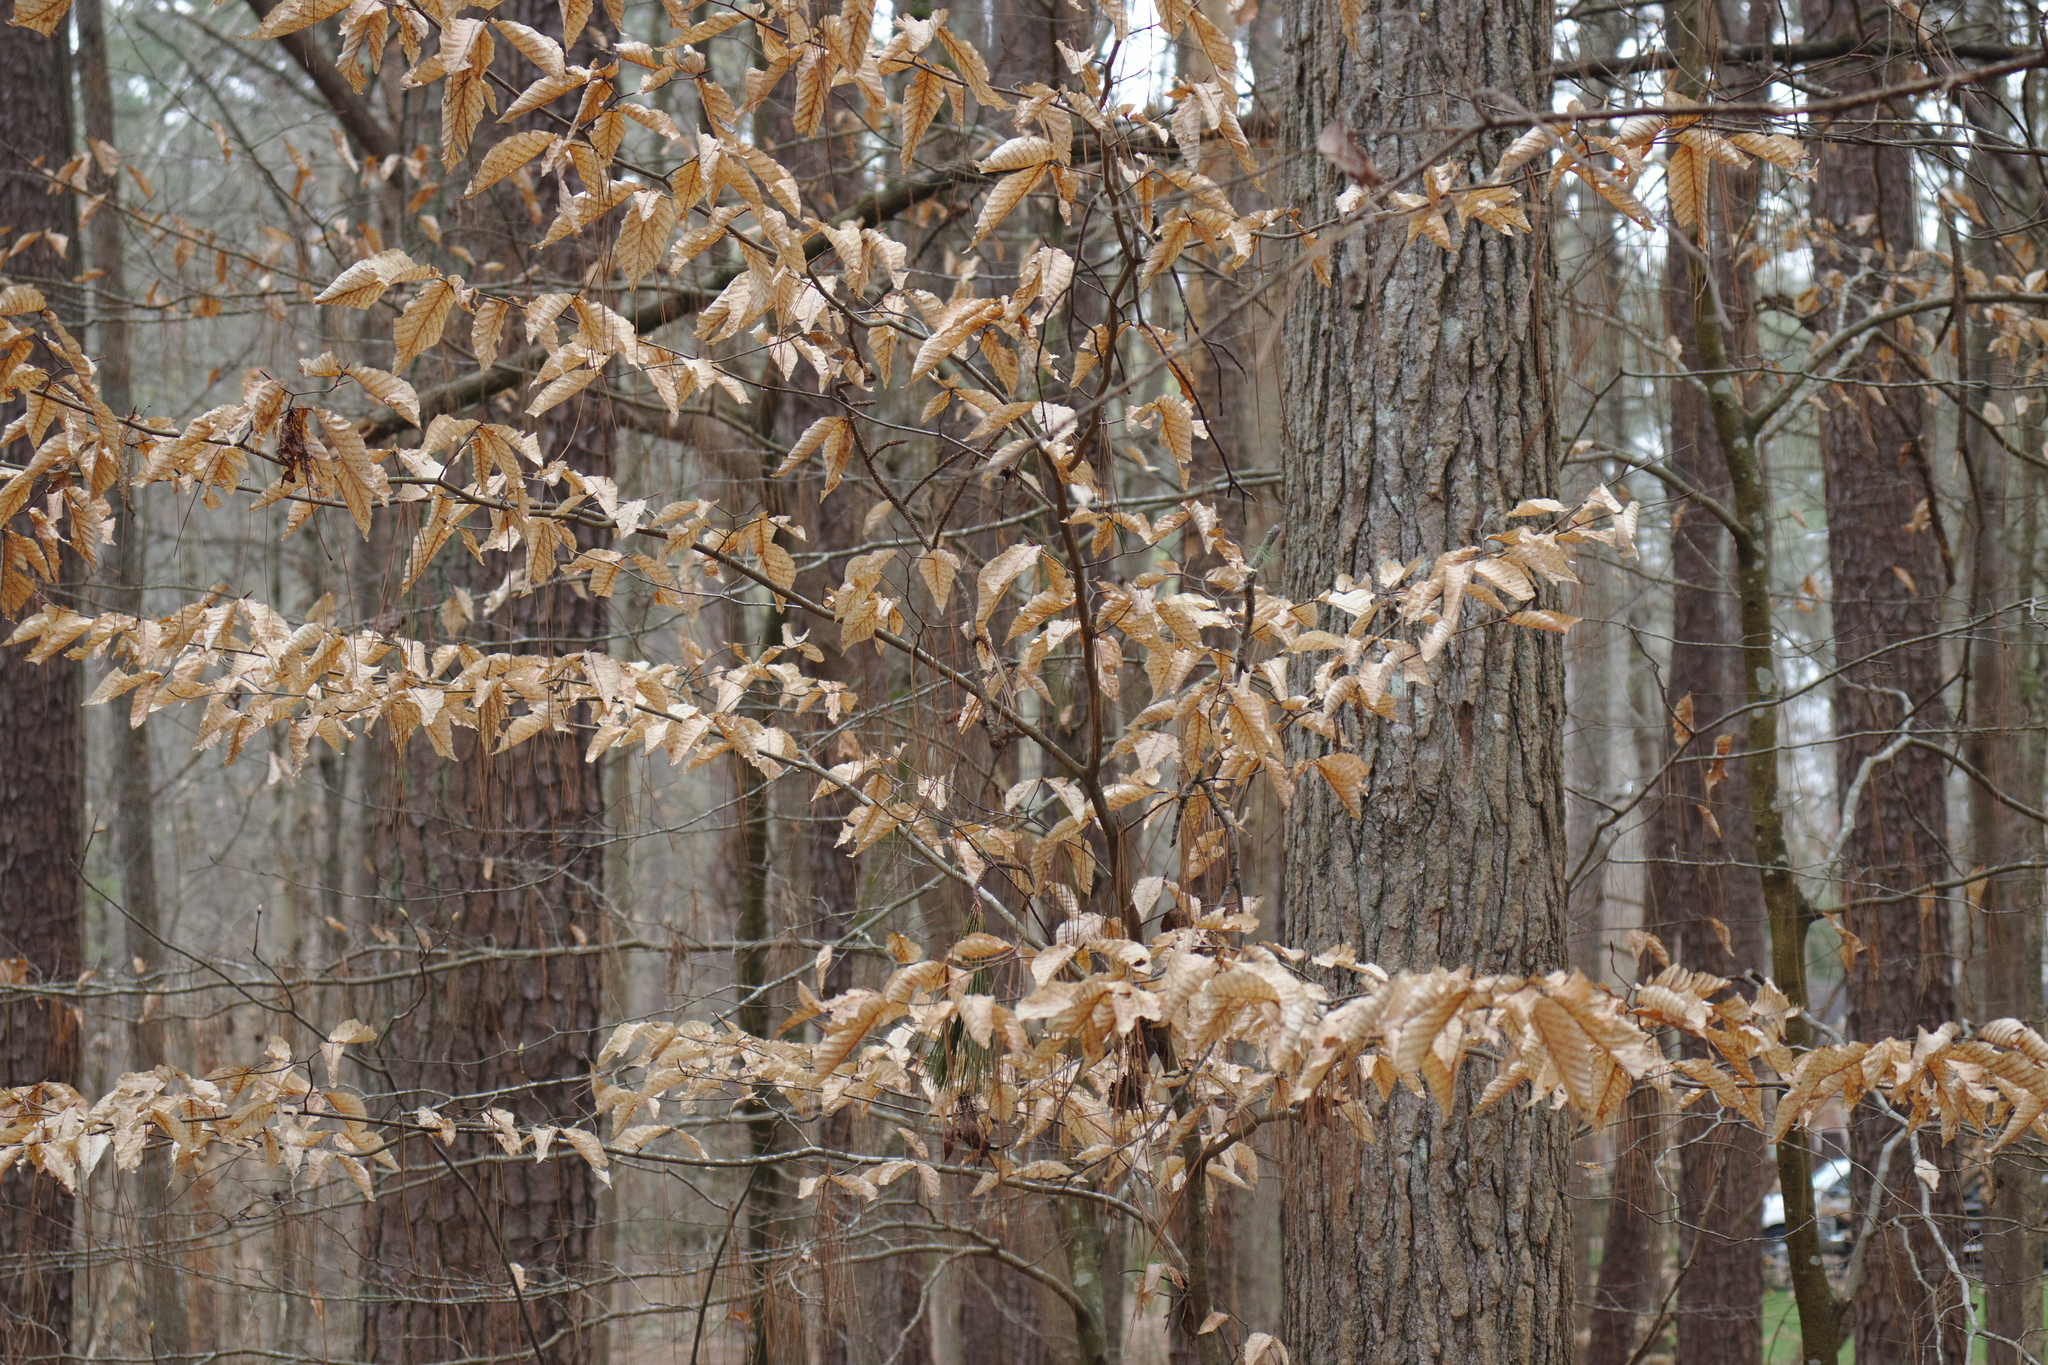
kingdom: Plantae
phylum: Tracheophyta
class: Magnoliopsida
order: Fagales
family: Fagaceae
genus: Fagus
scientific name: Fagus grandifolia
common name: American beech
